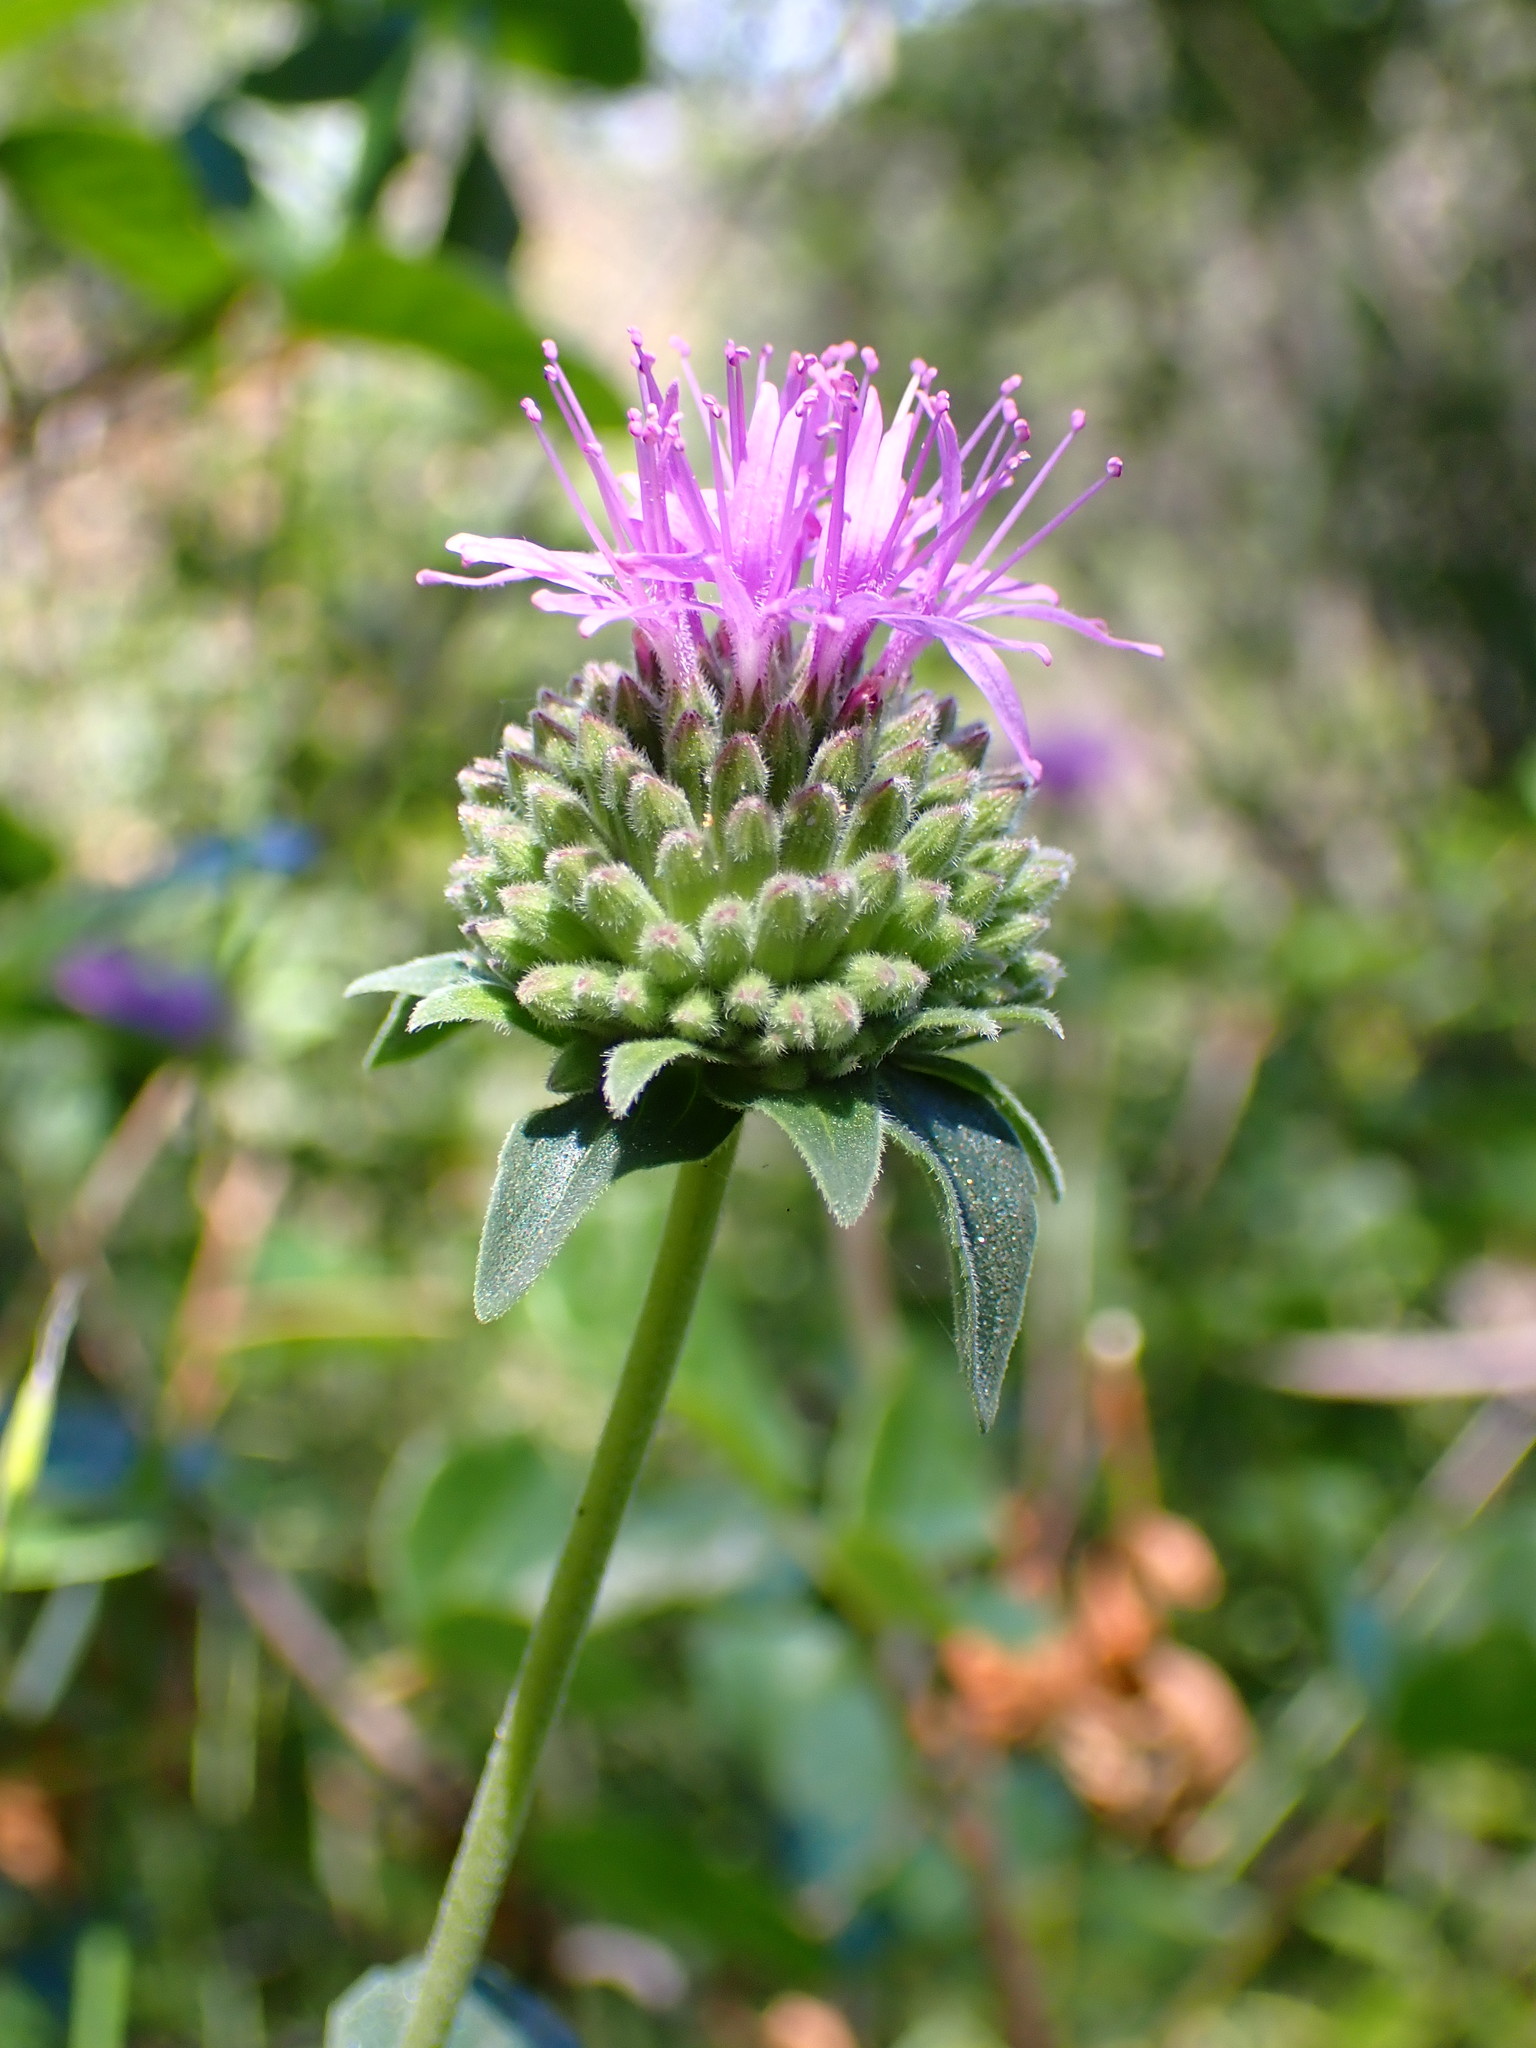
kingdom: Plantae
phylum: Tracheophyta
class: Magnoliopsida
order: Lamiales
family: Lamiaceae
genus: Monardella
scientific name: Monardella odoratissima
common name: Pacific monardella
